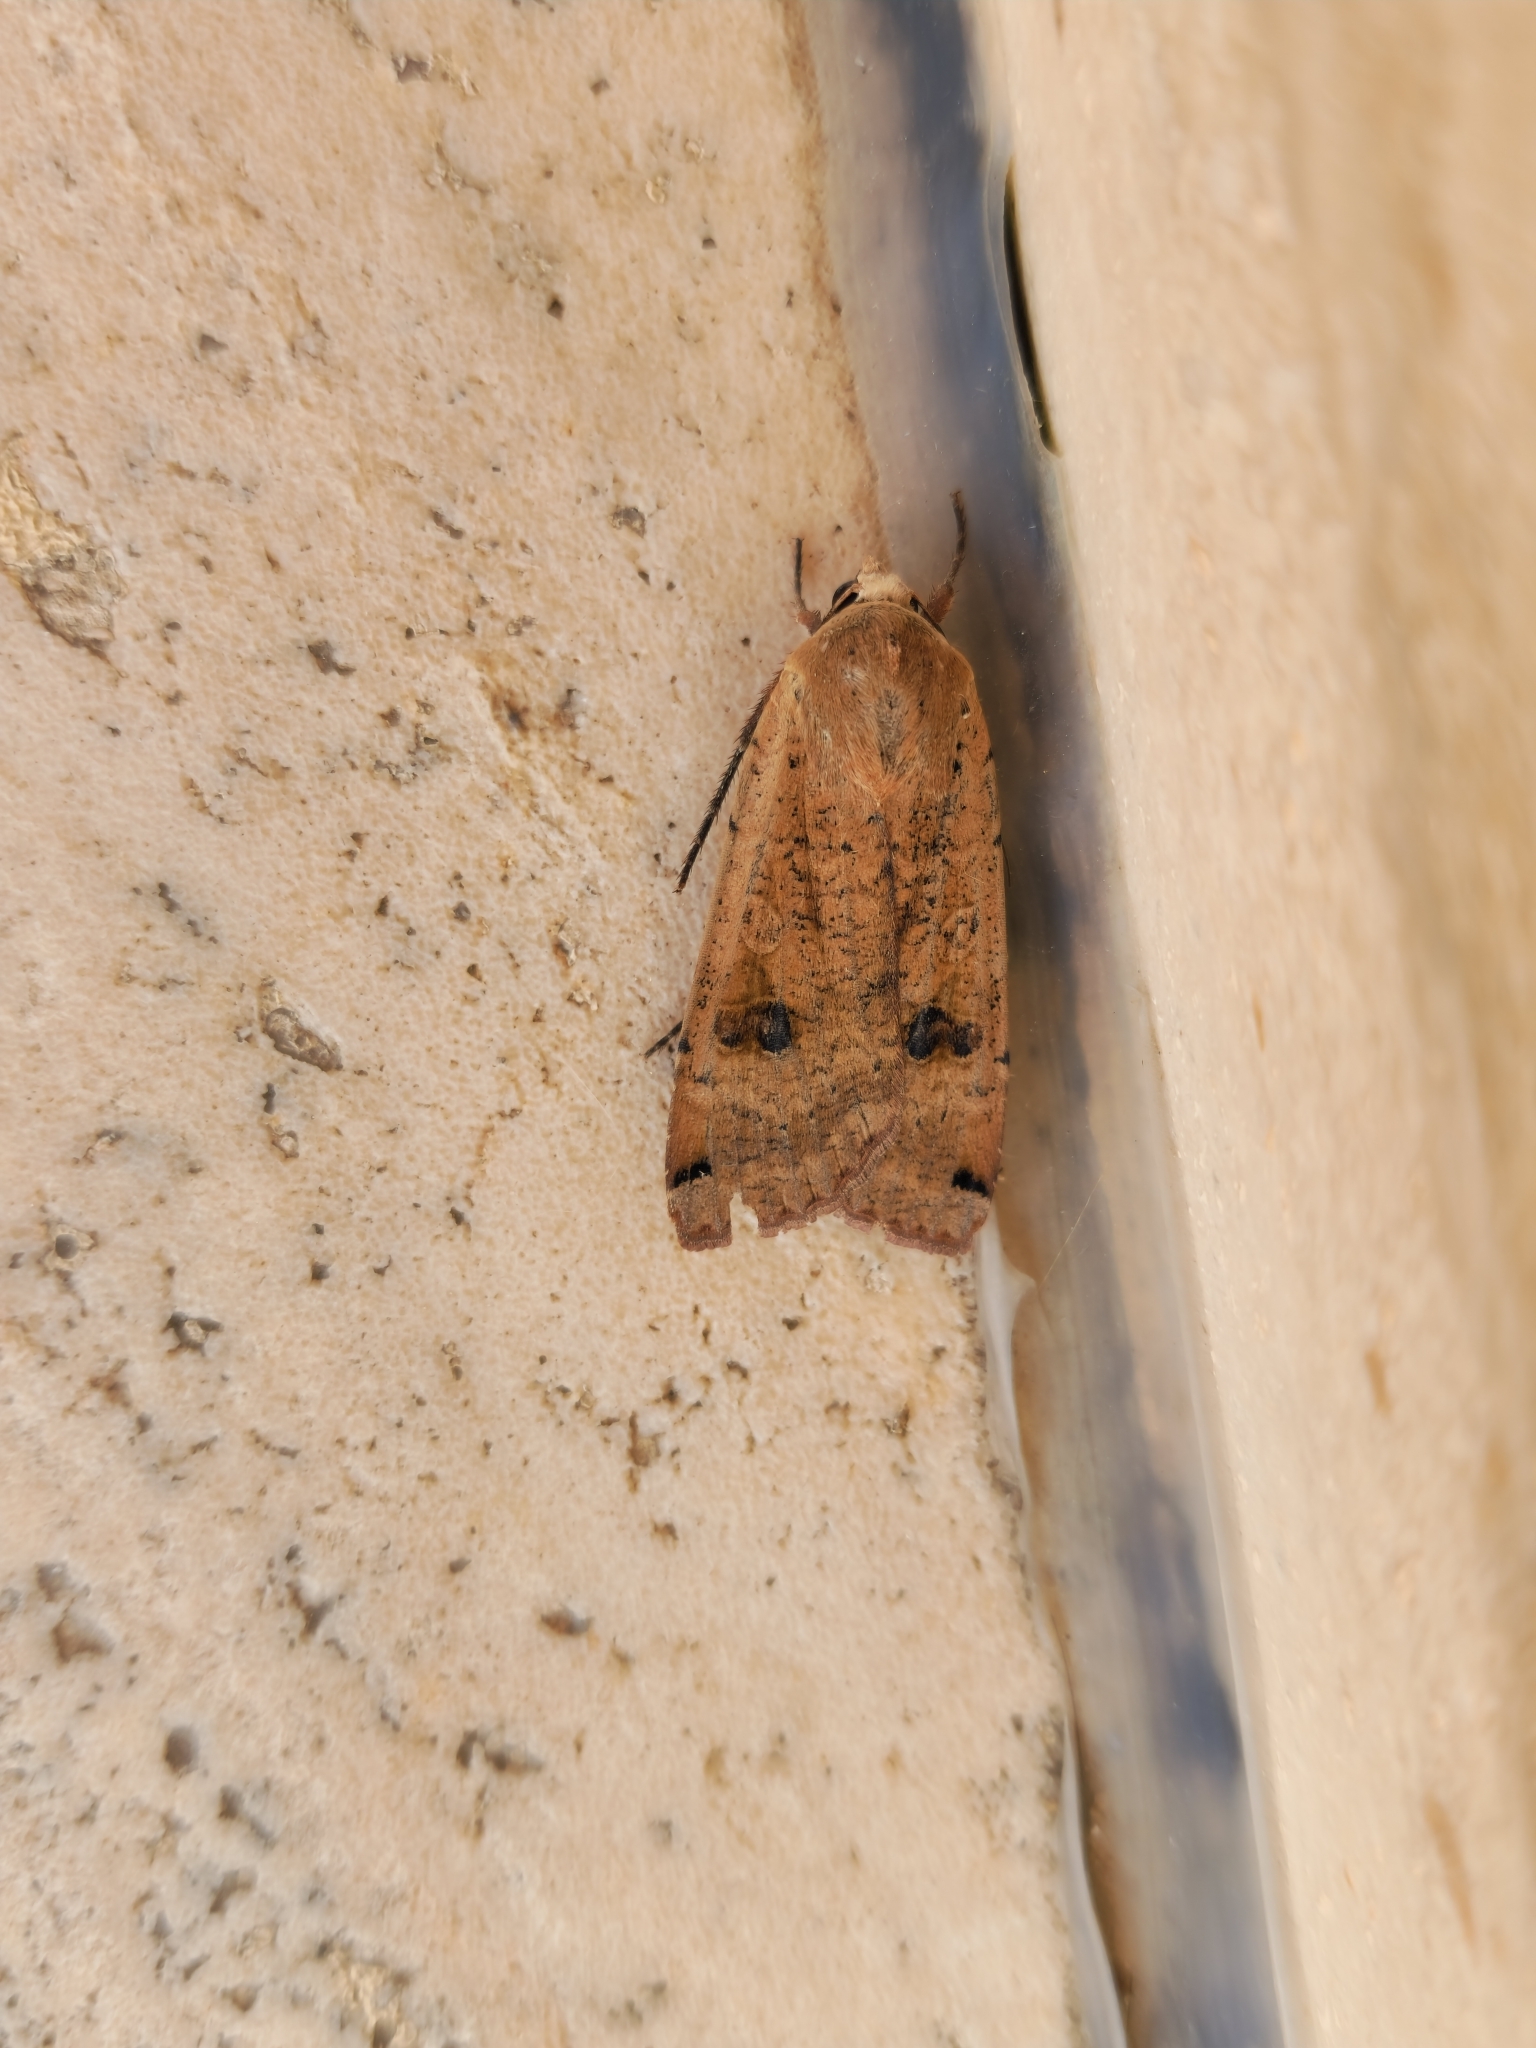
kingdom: Animalia
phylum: Arthropoda
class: Insecta
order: Lepidoptera
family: Noctuidae
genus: Noctua
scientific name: Noctua pronuba
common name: Large yellow underwing
